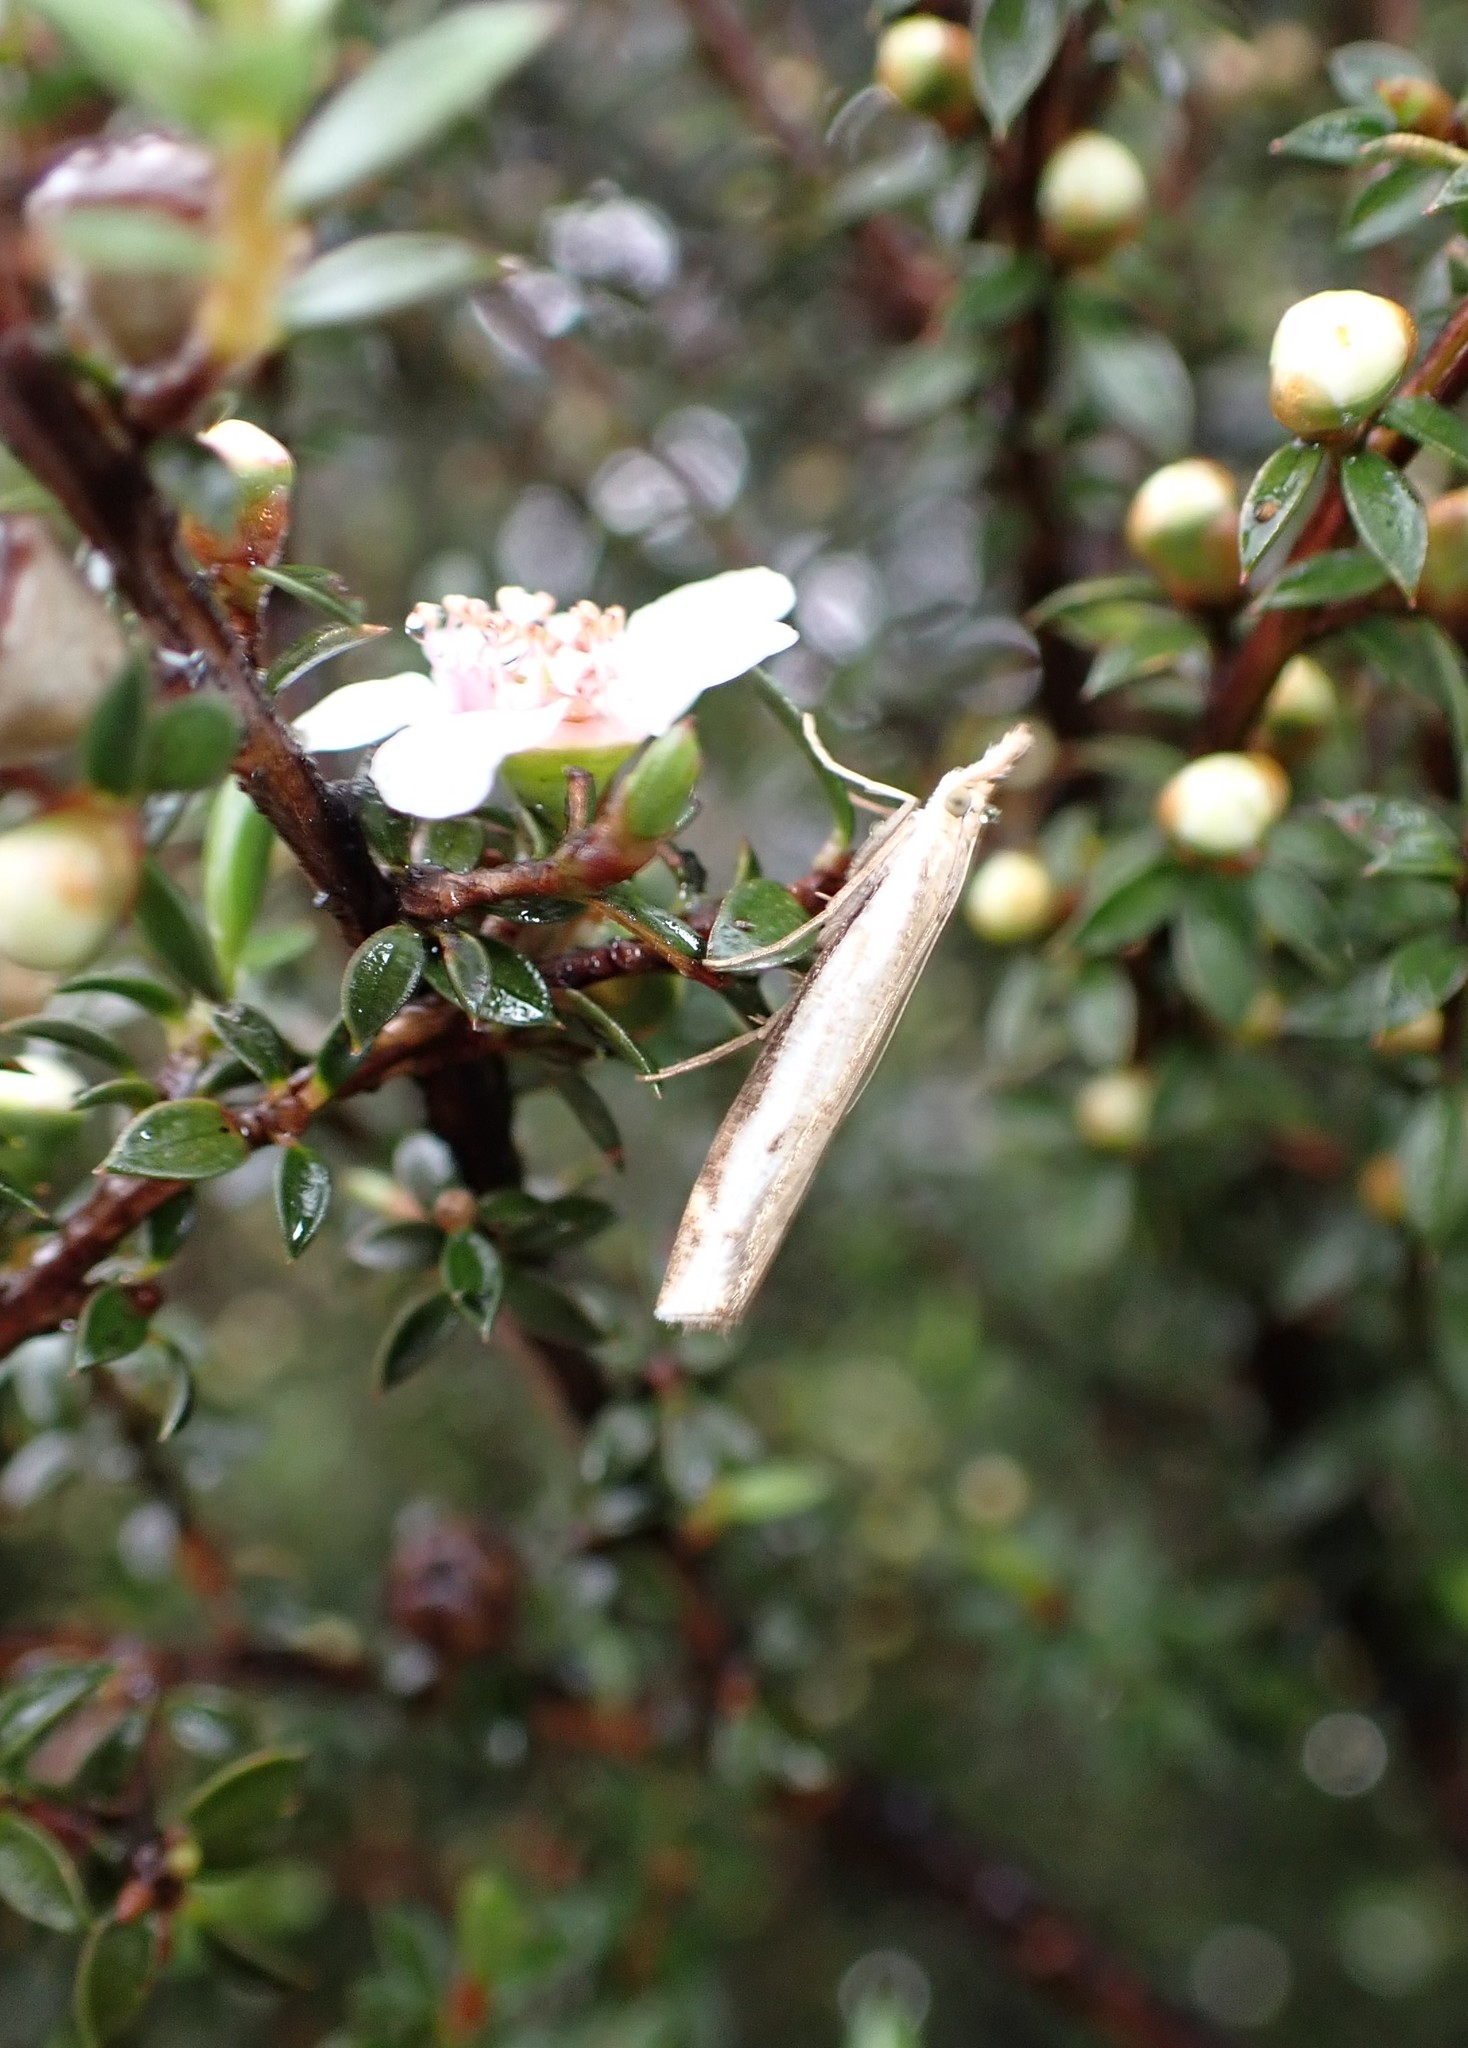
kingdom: Animalia
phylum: Arthropoda
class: Insecta
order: Lepidoptera
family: Crambidae
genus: Orocrambus
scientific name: Orocrambus flexuosellus
